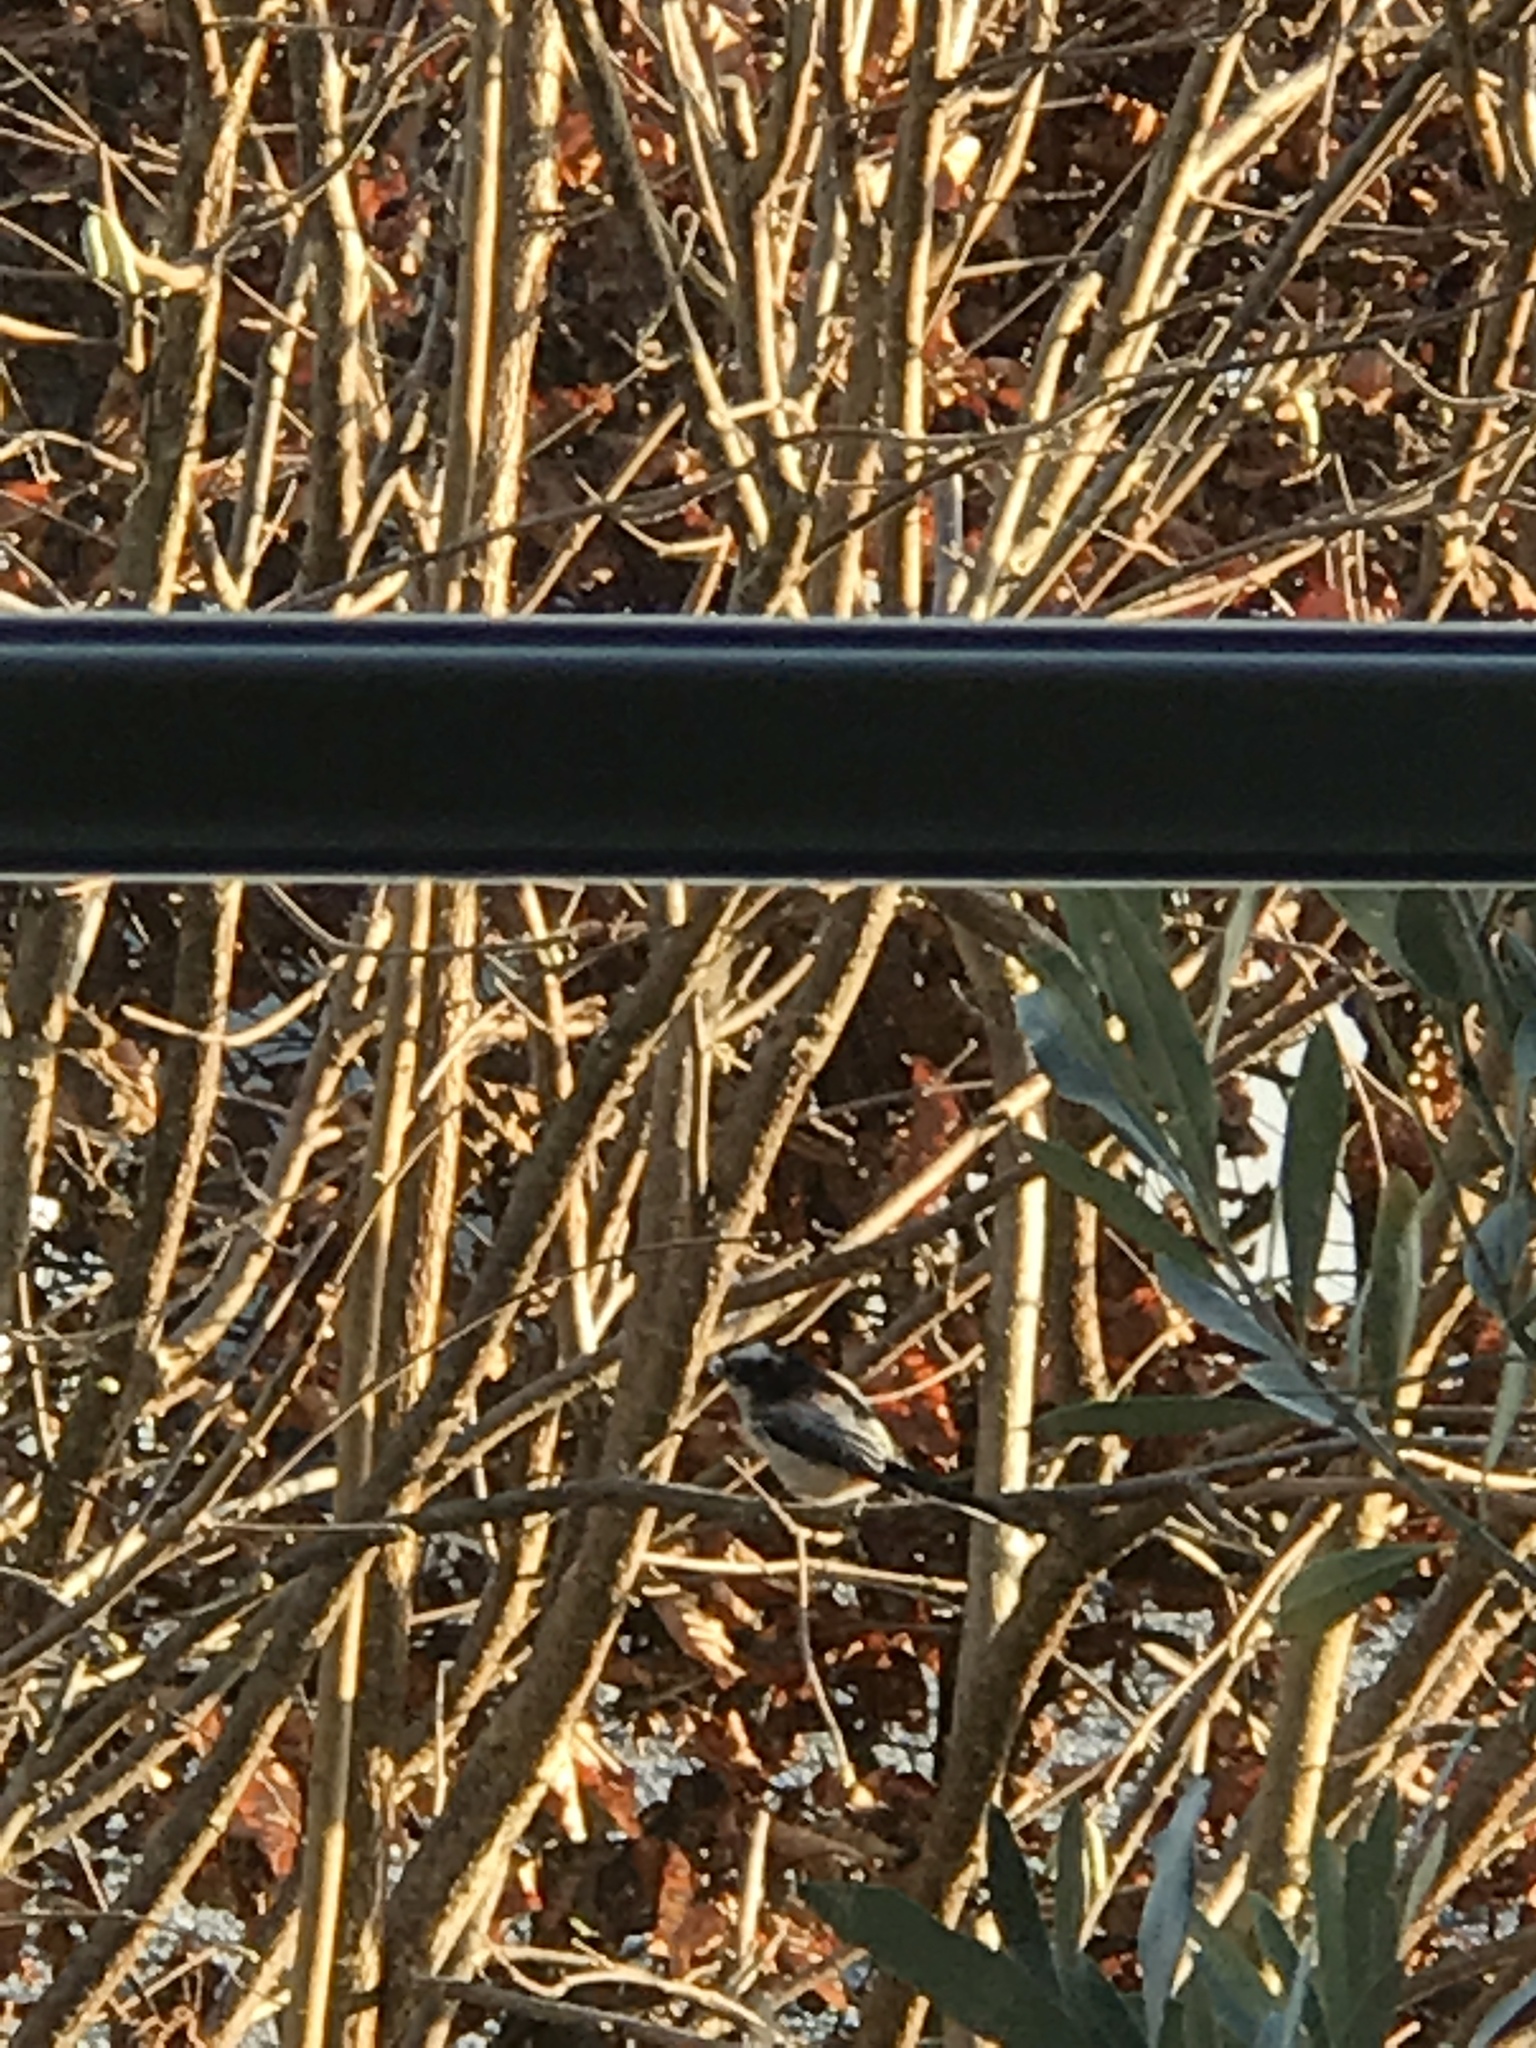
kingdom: Animalia
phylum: Chordata
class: Aves
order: Passeriformes
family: Aegithalidae
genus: Aegithalos
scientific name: Aegithalos caudatus
